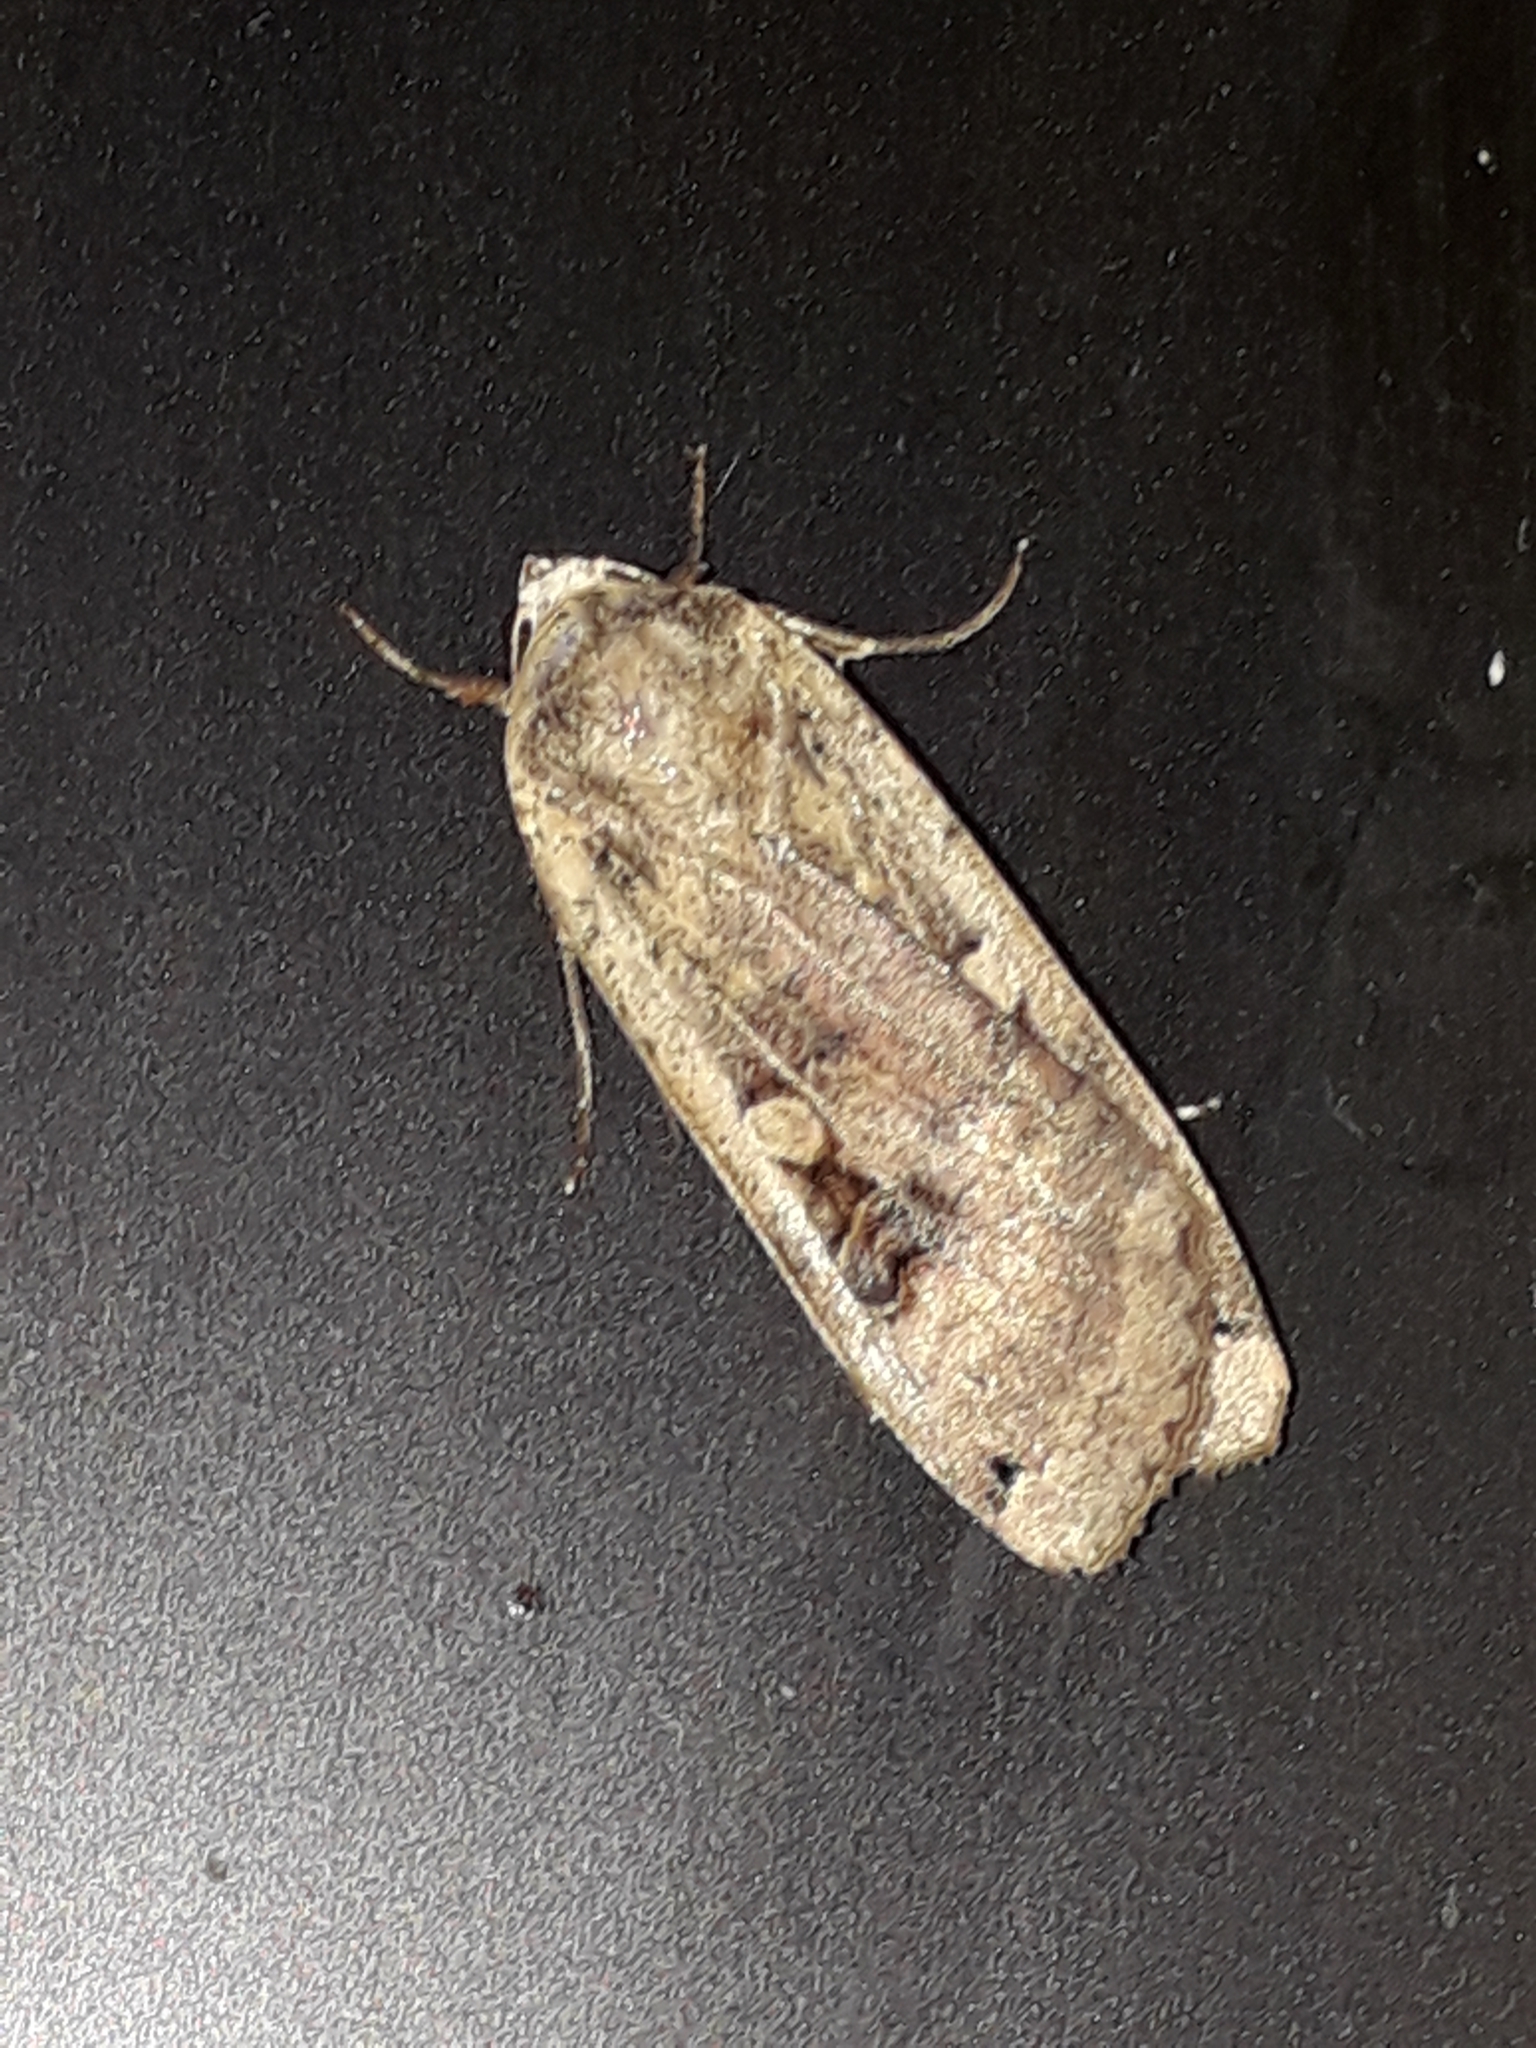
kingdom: Animalia
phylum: Arthropoda
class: Insecta
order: Lepidoptera
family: Noctuidae
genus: Noctua
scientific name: Noctua pronuba
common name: Large yellow underwing
